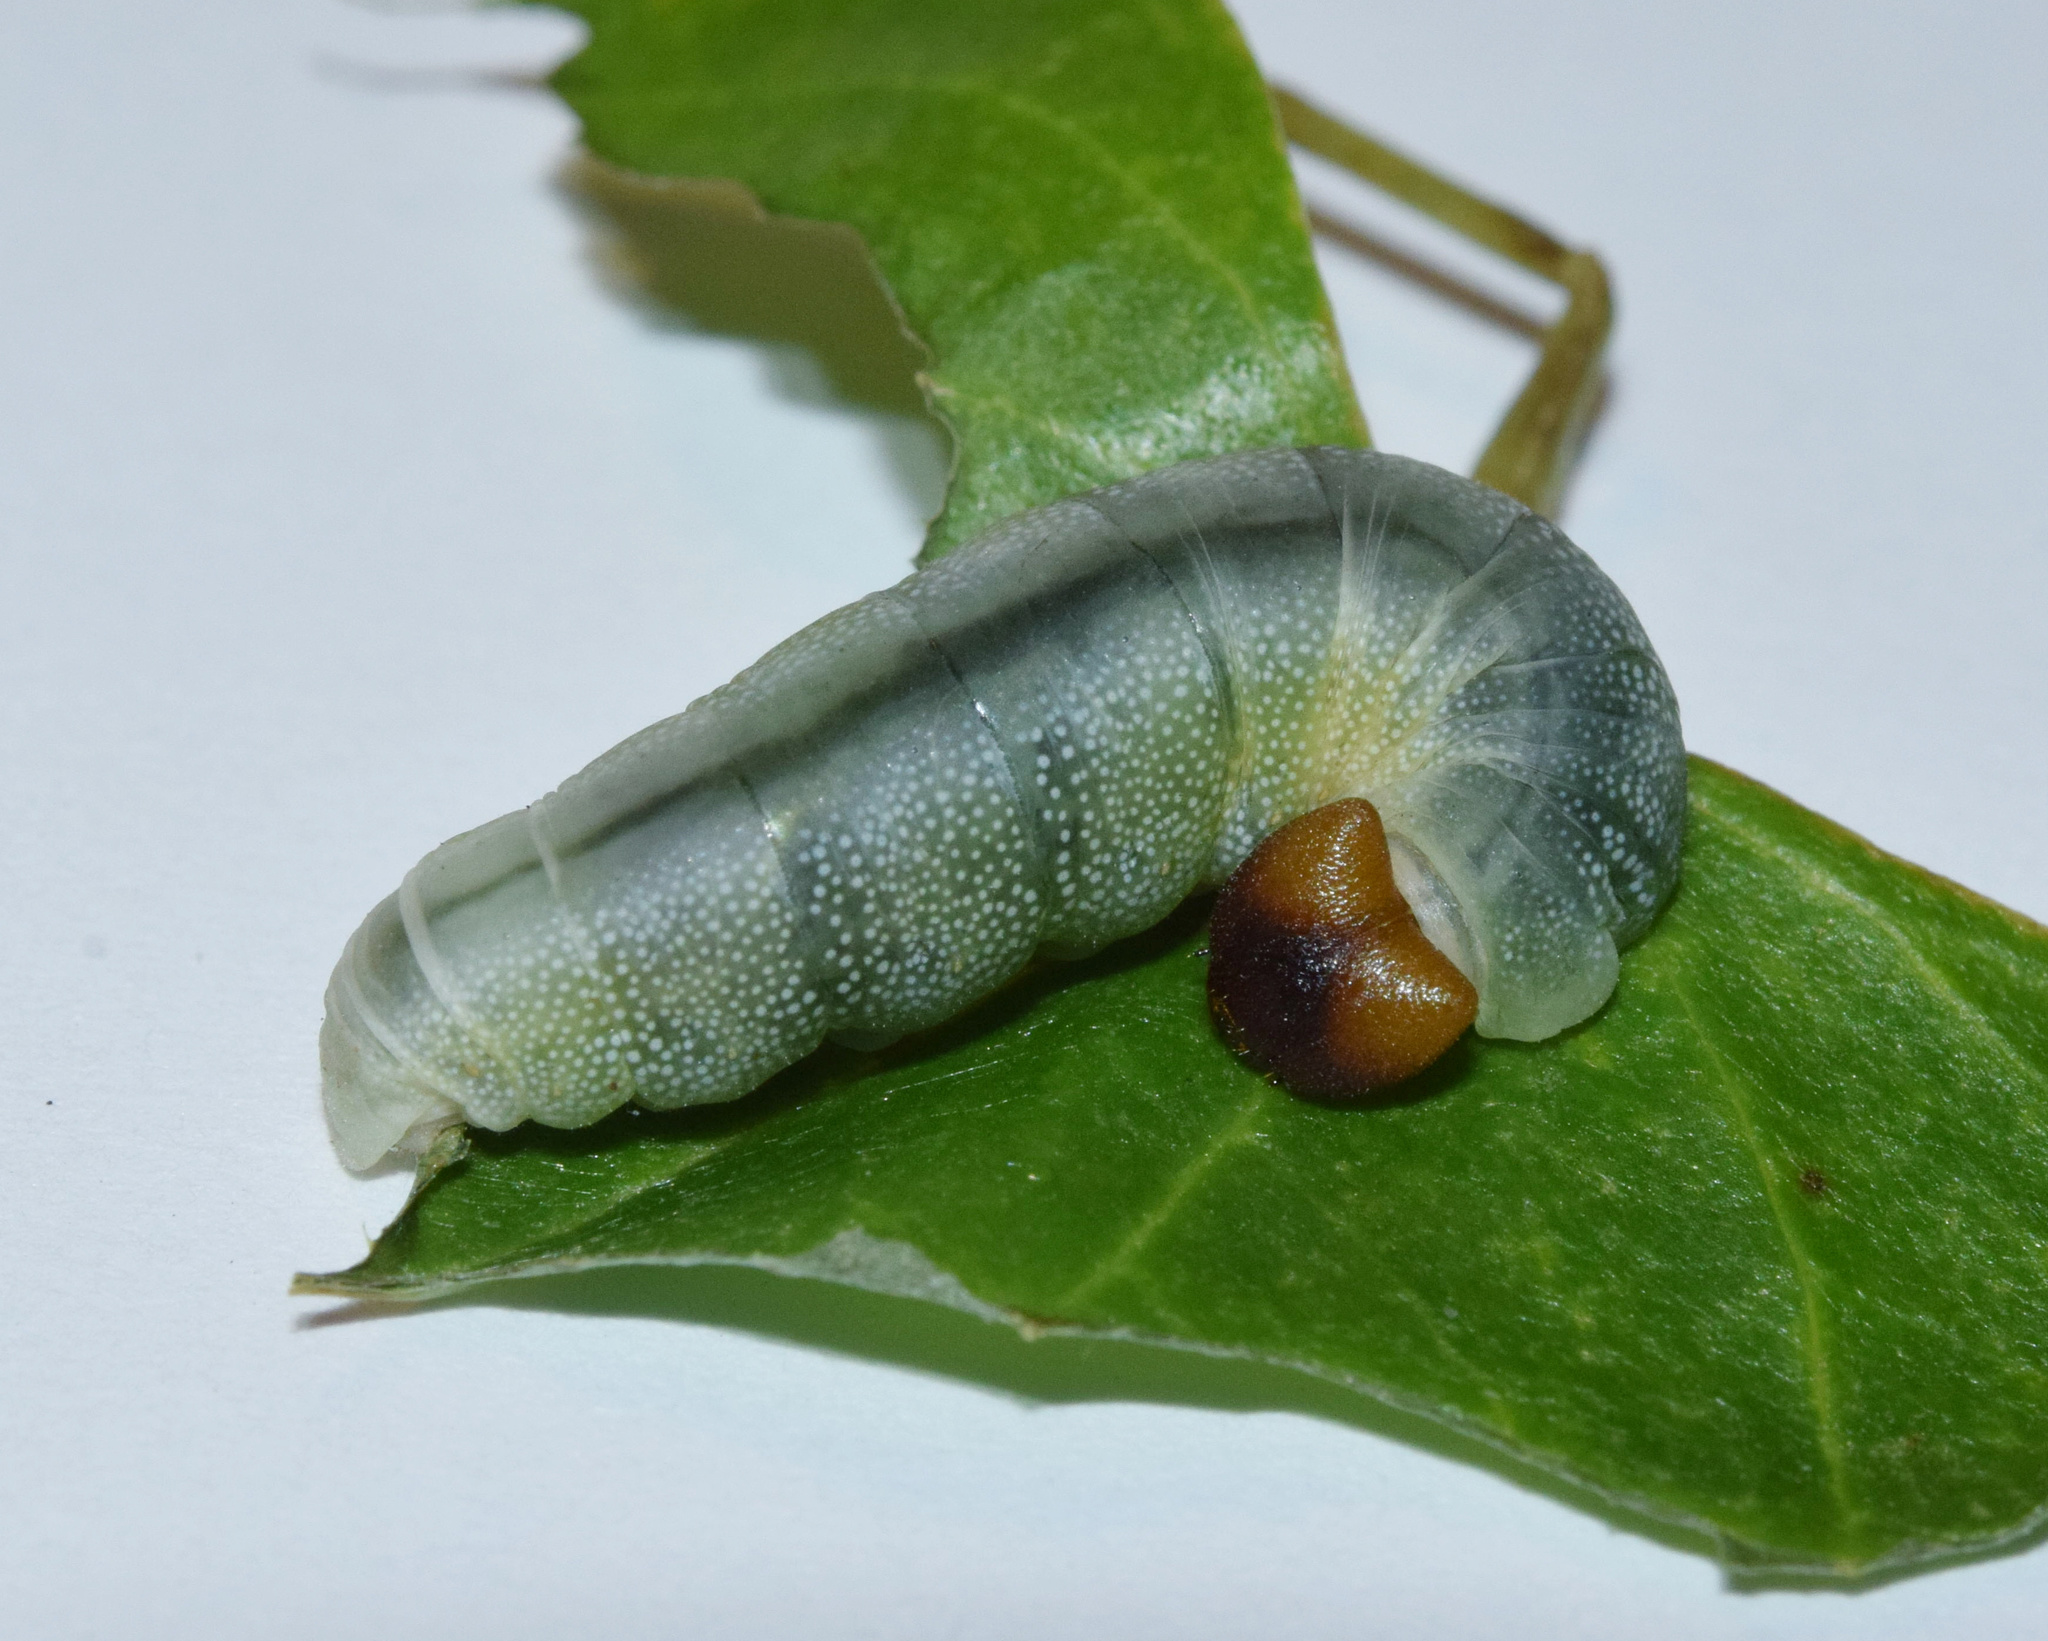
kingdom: Animalia
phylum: Arthropoda
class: Insecta
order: Lepidoptera
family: Hesperiidae
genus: Tagiades
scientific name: Tagiades flesus
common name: Clouded flat
